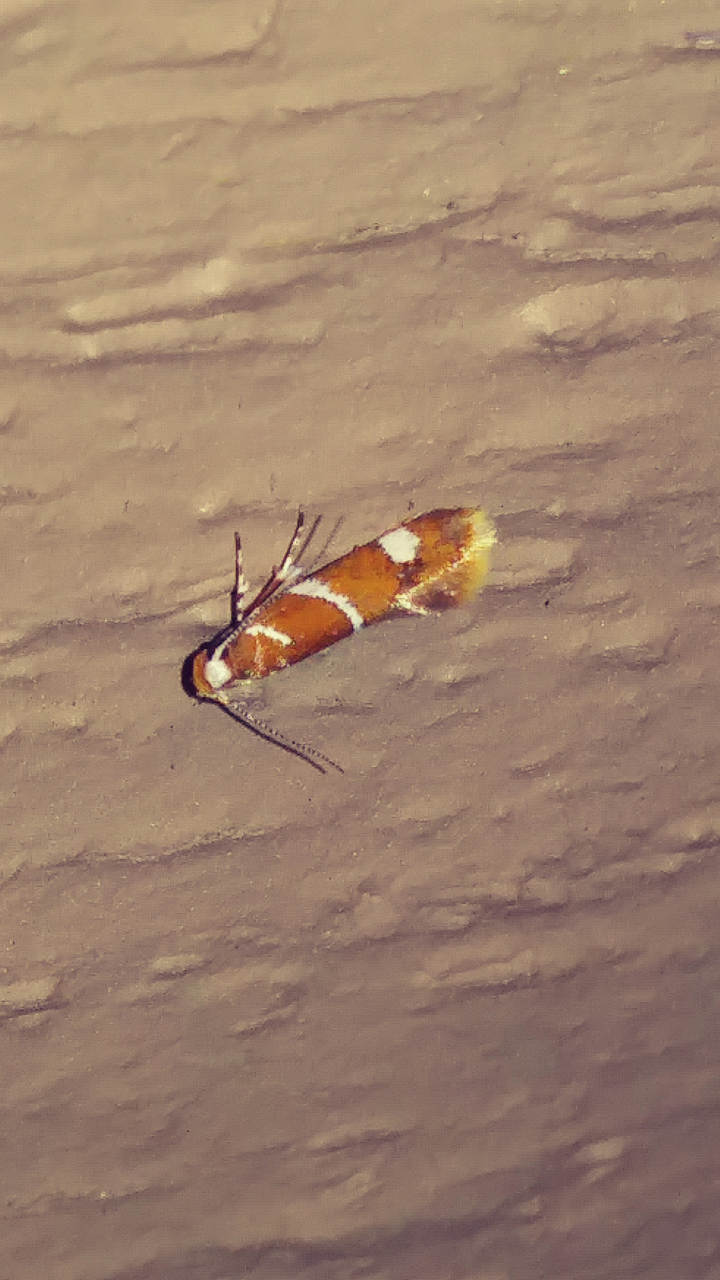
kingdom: Animalia
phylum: Arthropoda
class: Insecta
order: Lepidoptera
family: Oecophoridae
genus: Promalactis
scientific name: Promalactis suzukiella
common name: Moth
